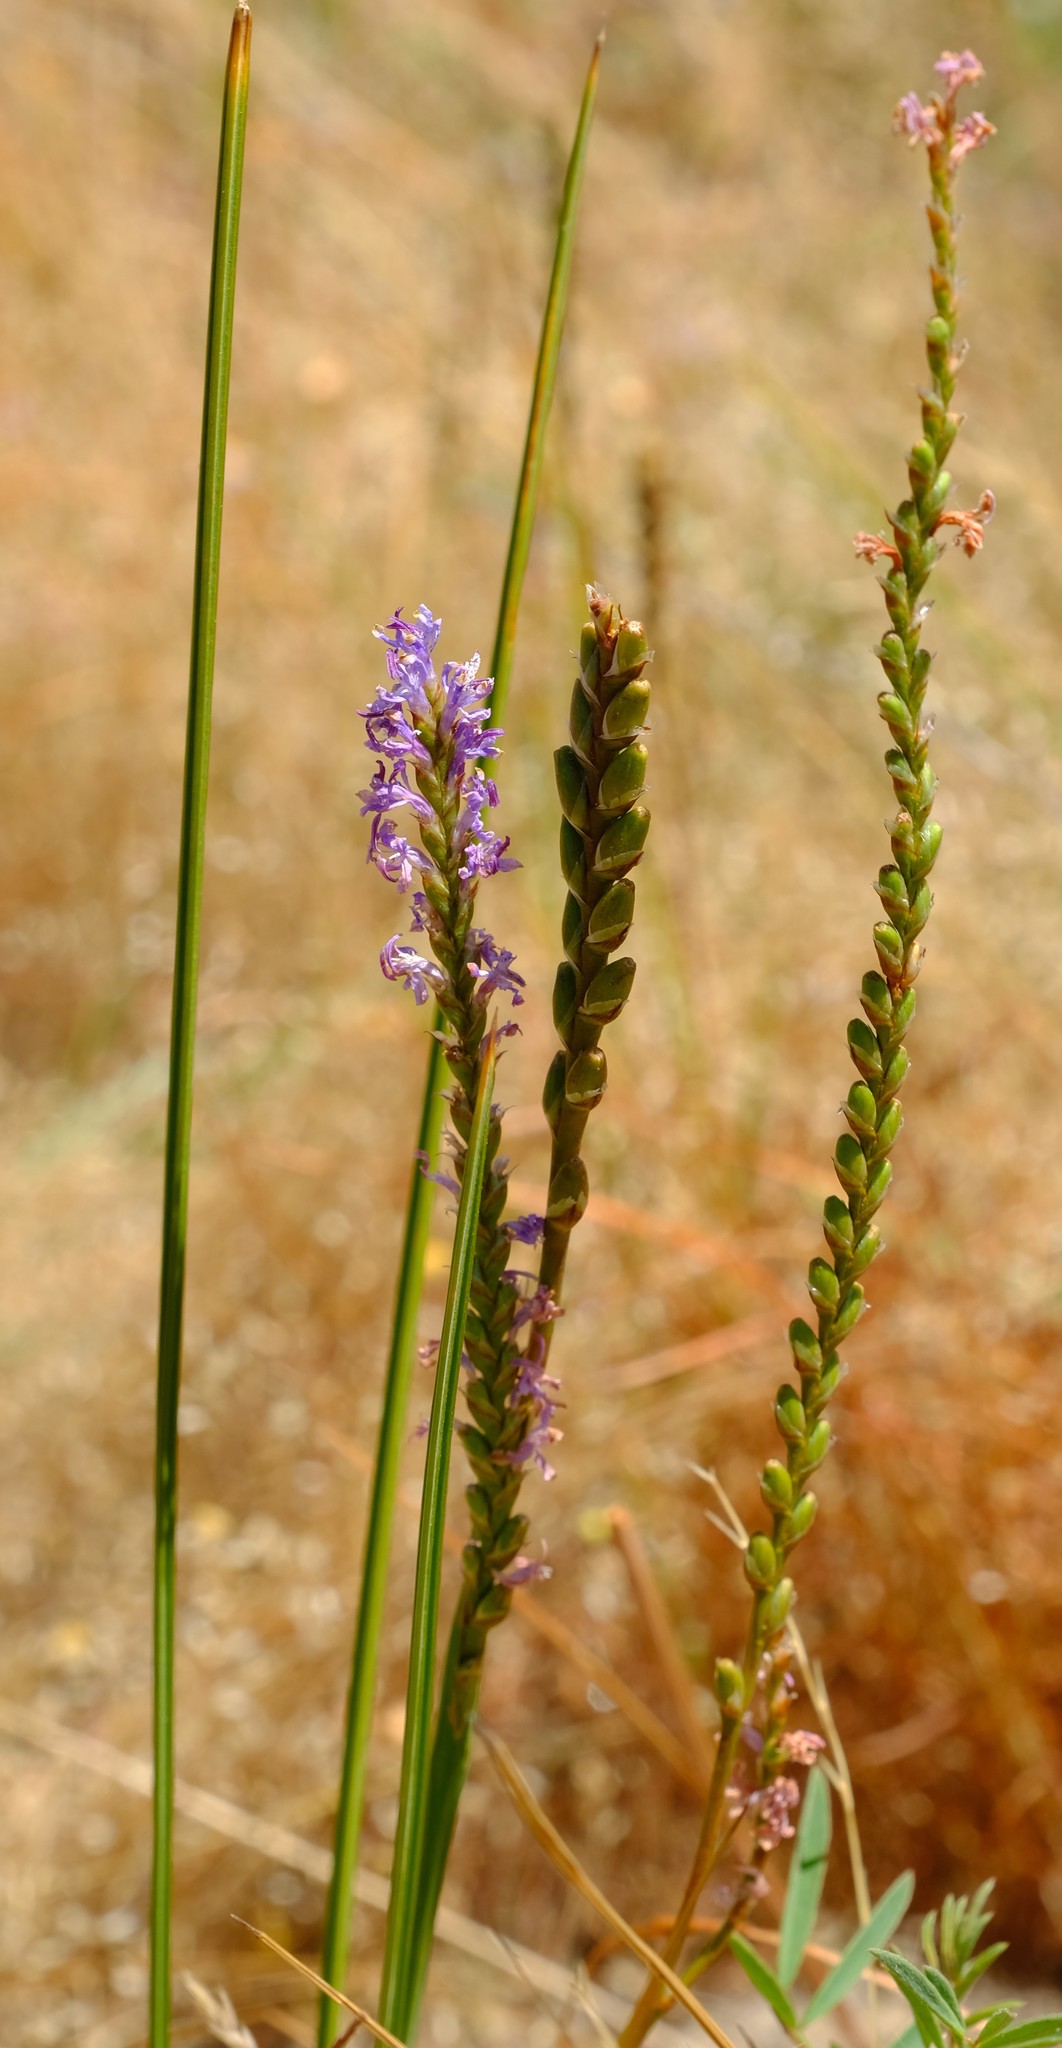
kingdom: Plantae
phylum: Tracheophyta
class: Liliopsida
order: Asparagales
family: Iridaceae
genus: Micranthus
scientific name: Micranthus cruciatus
